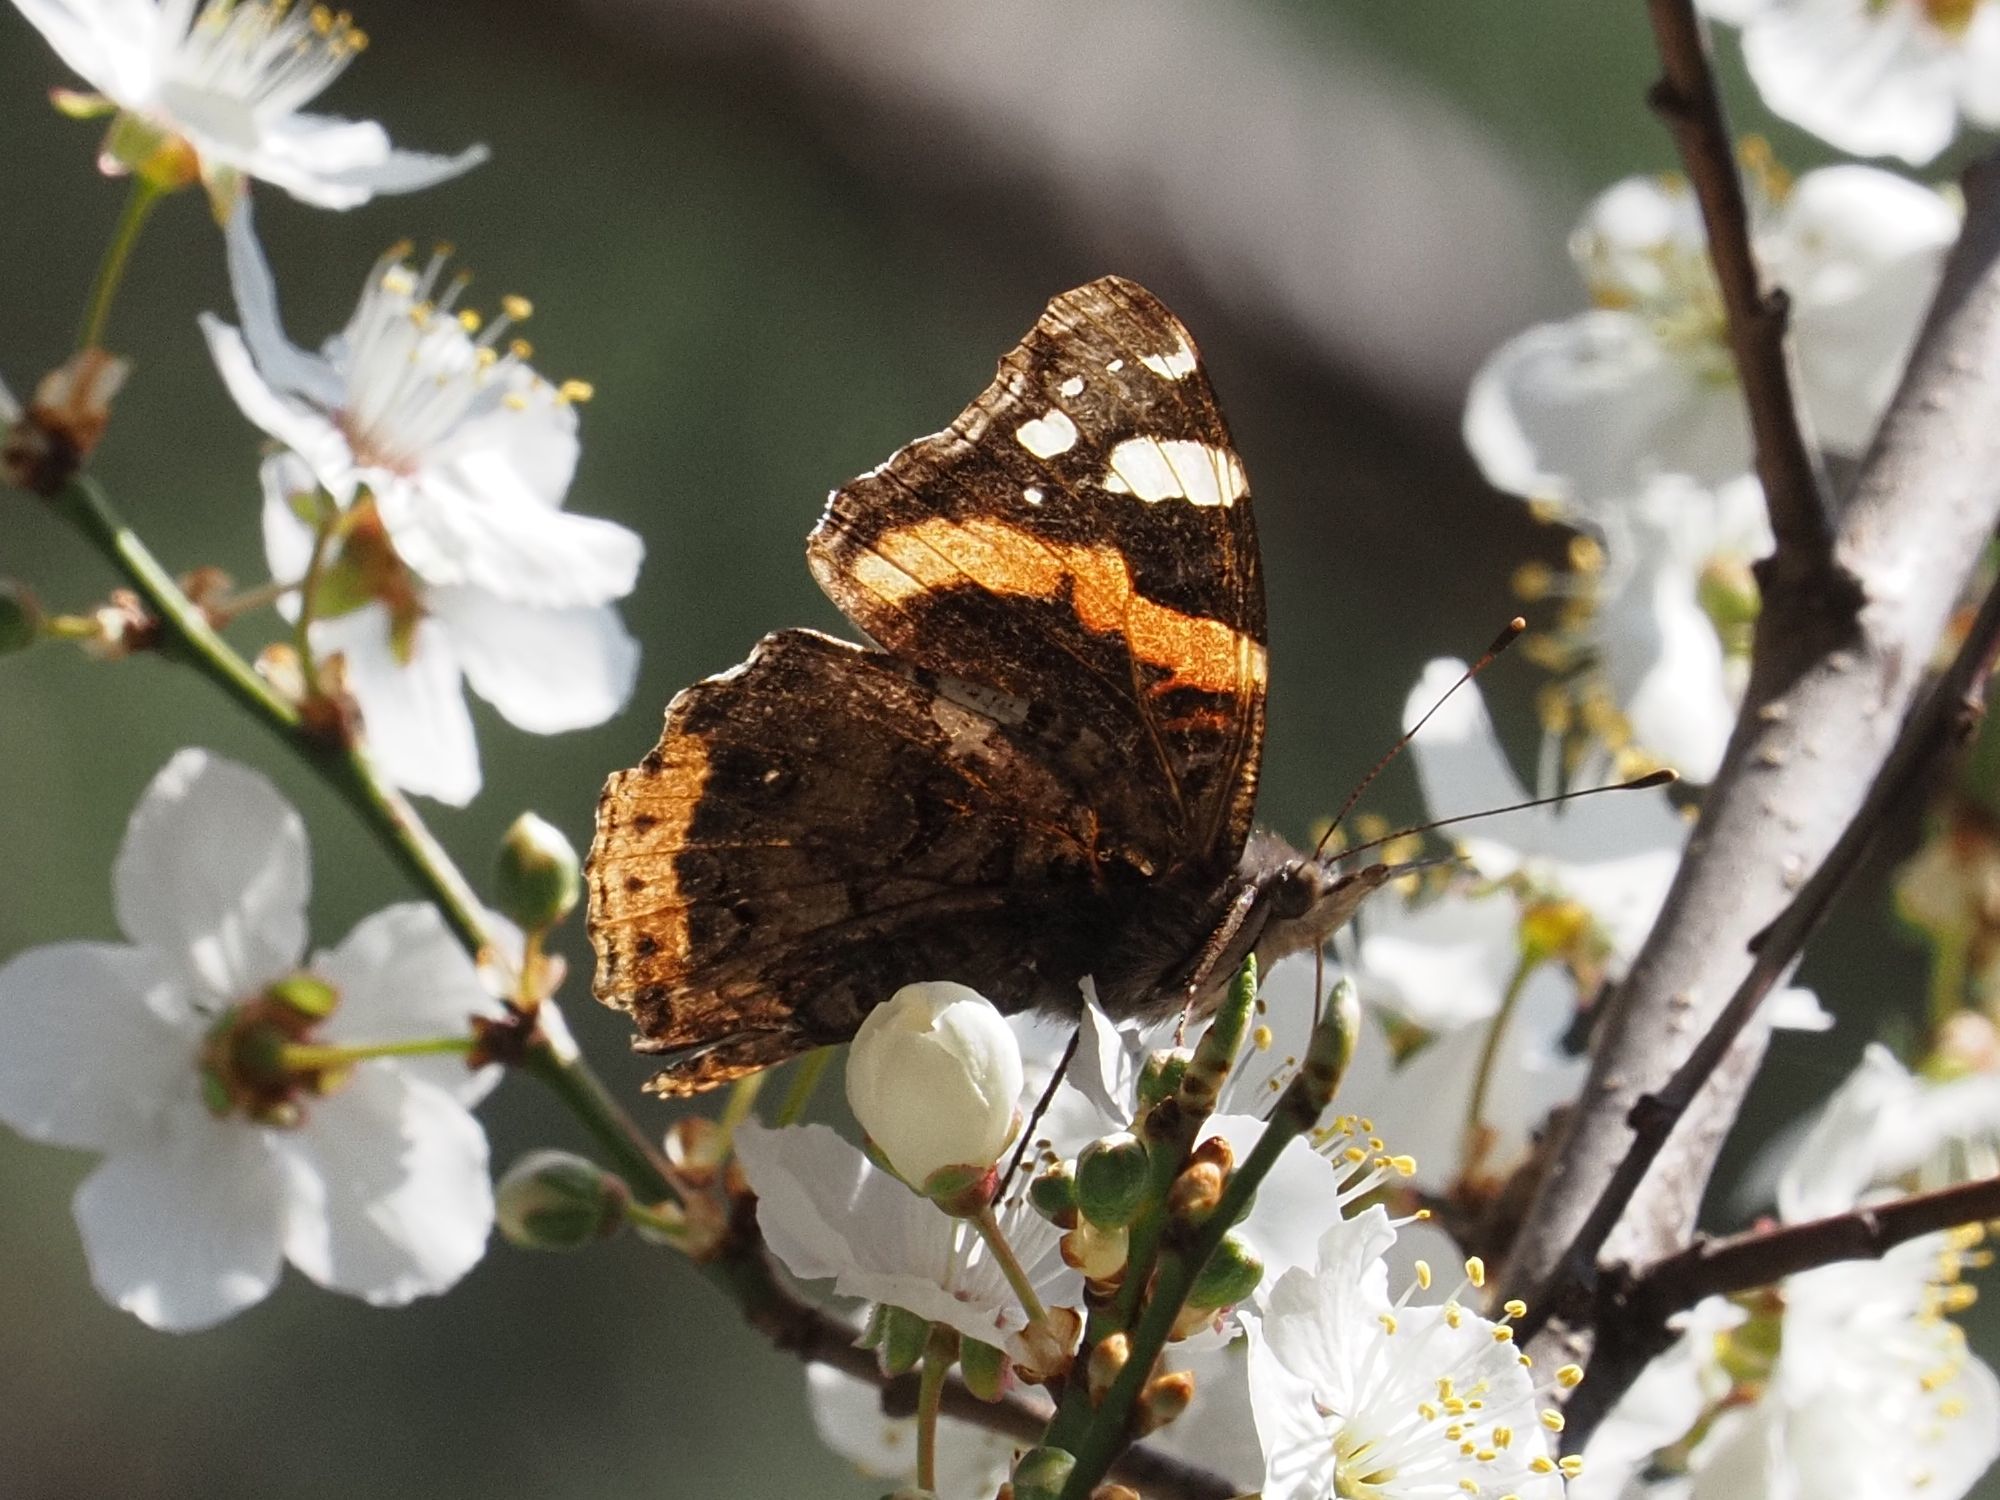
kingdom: Animalia
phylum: Arthropoda
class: Insecta
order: Lepidoptera
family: Nymphalidae
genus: Vanessa
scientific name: Vanessa atalanta
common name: Red admiral
